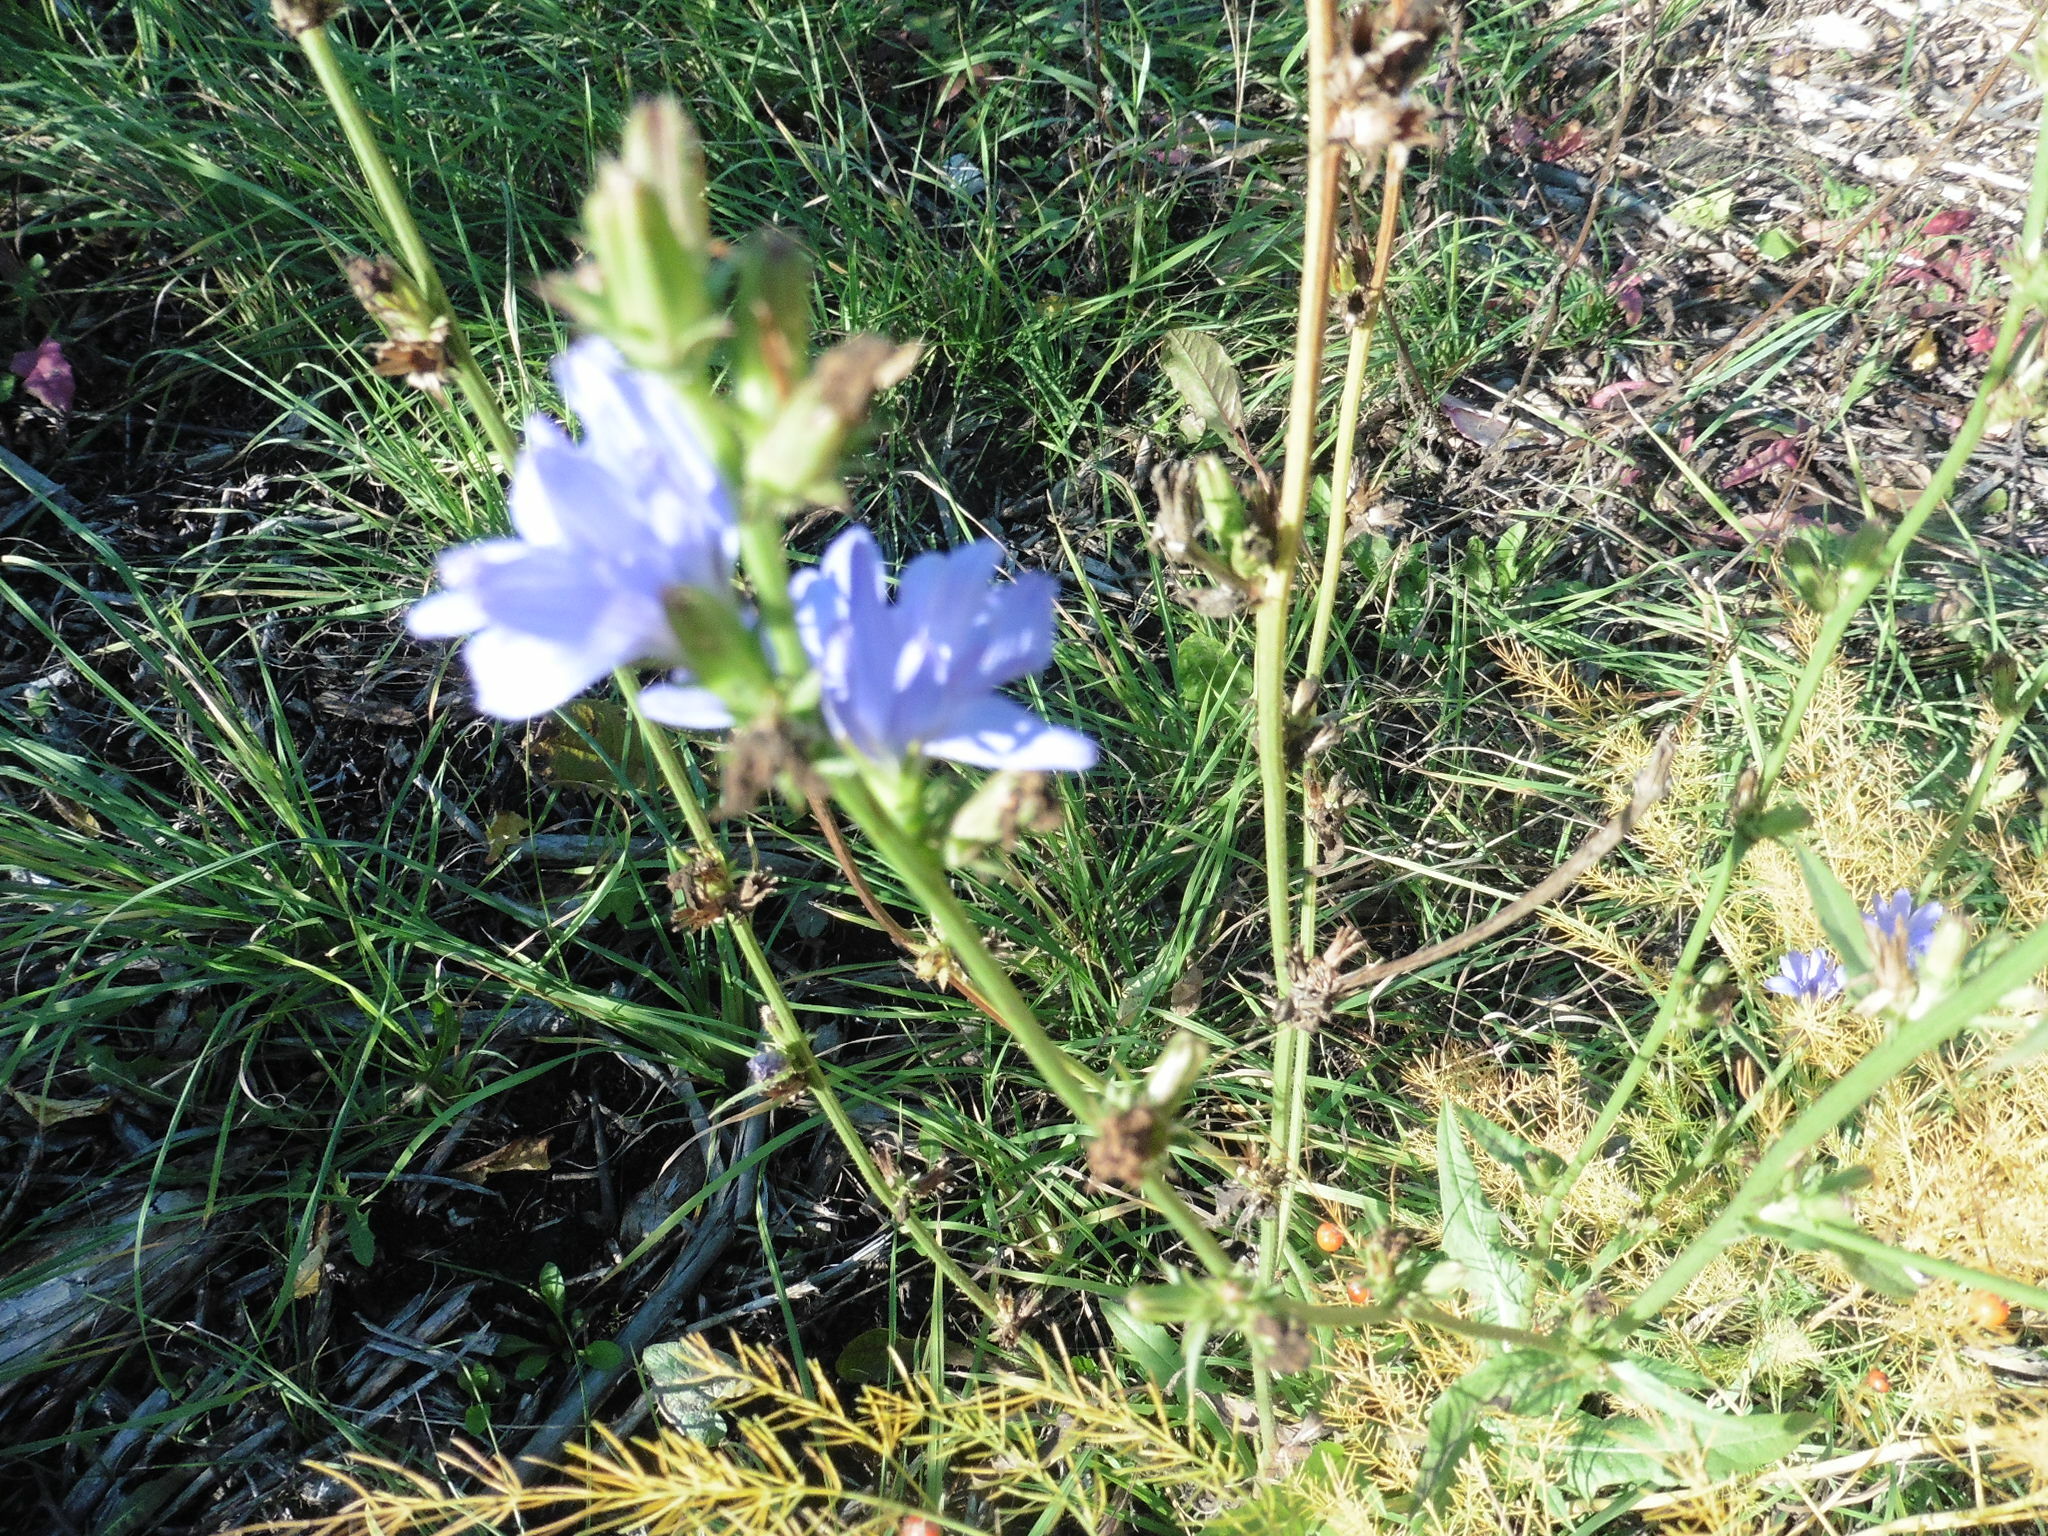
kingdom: Plantae
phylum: Tracheophyta
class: Magnoliopsida
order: Asterales
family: Asteraceae
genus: Cichorium
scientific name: Cichorium intybus
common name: Chicory
